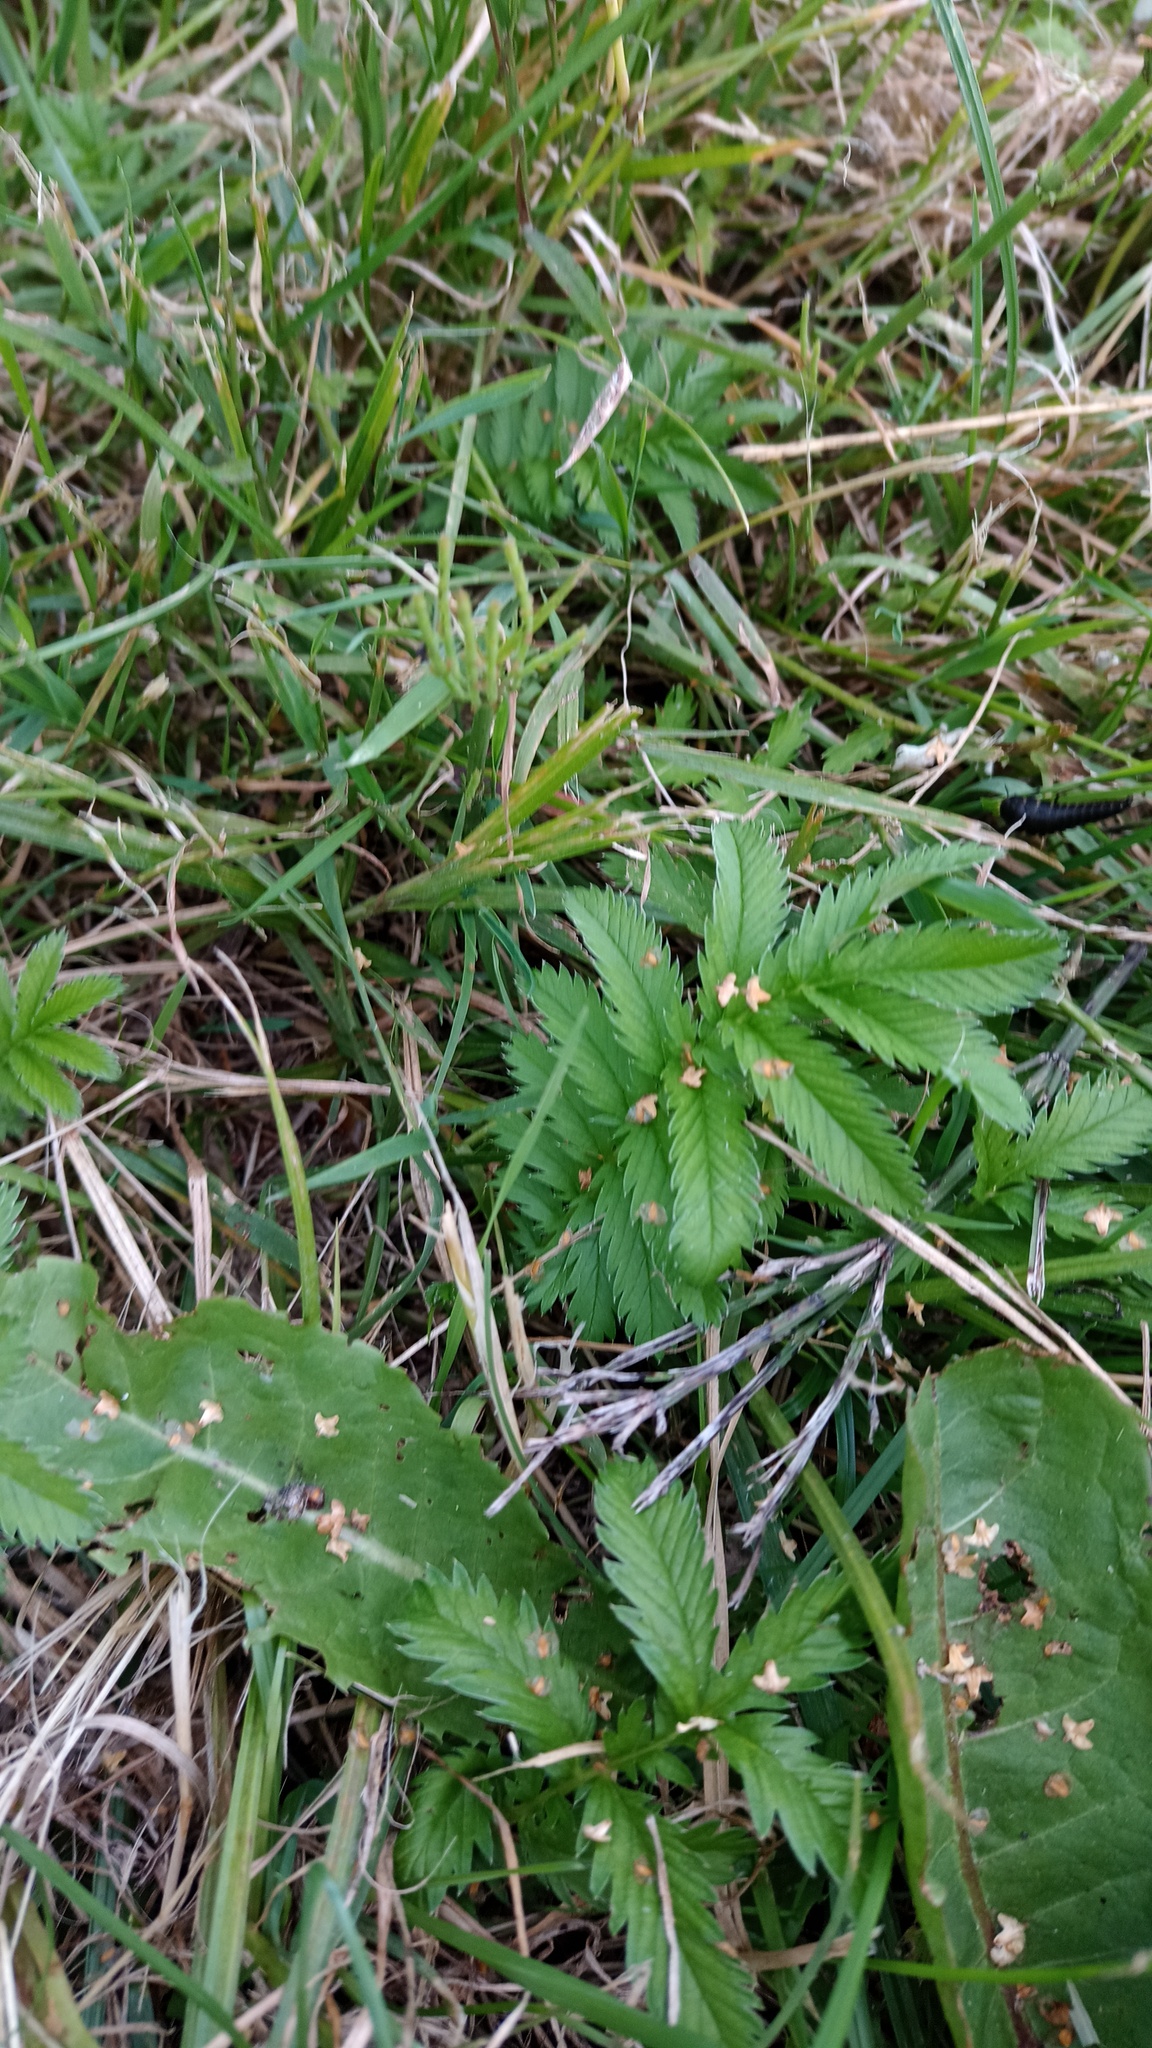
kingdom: Plantae
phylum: Tracheophyta
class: Magnoliopsida
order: Rosales
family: Rosaceae
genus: Argentina
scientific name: Argentina anserina
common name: Common silverweed
